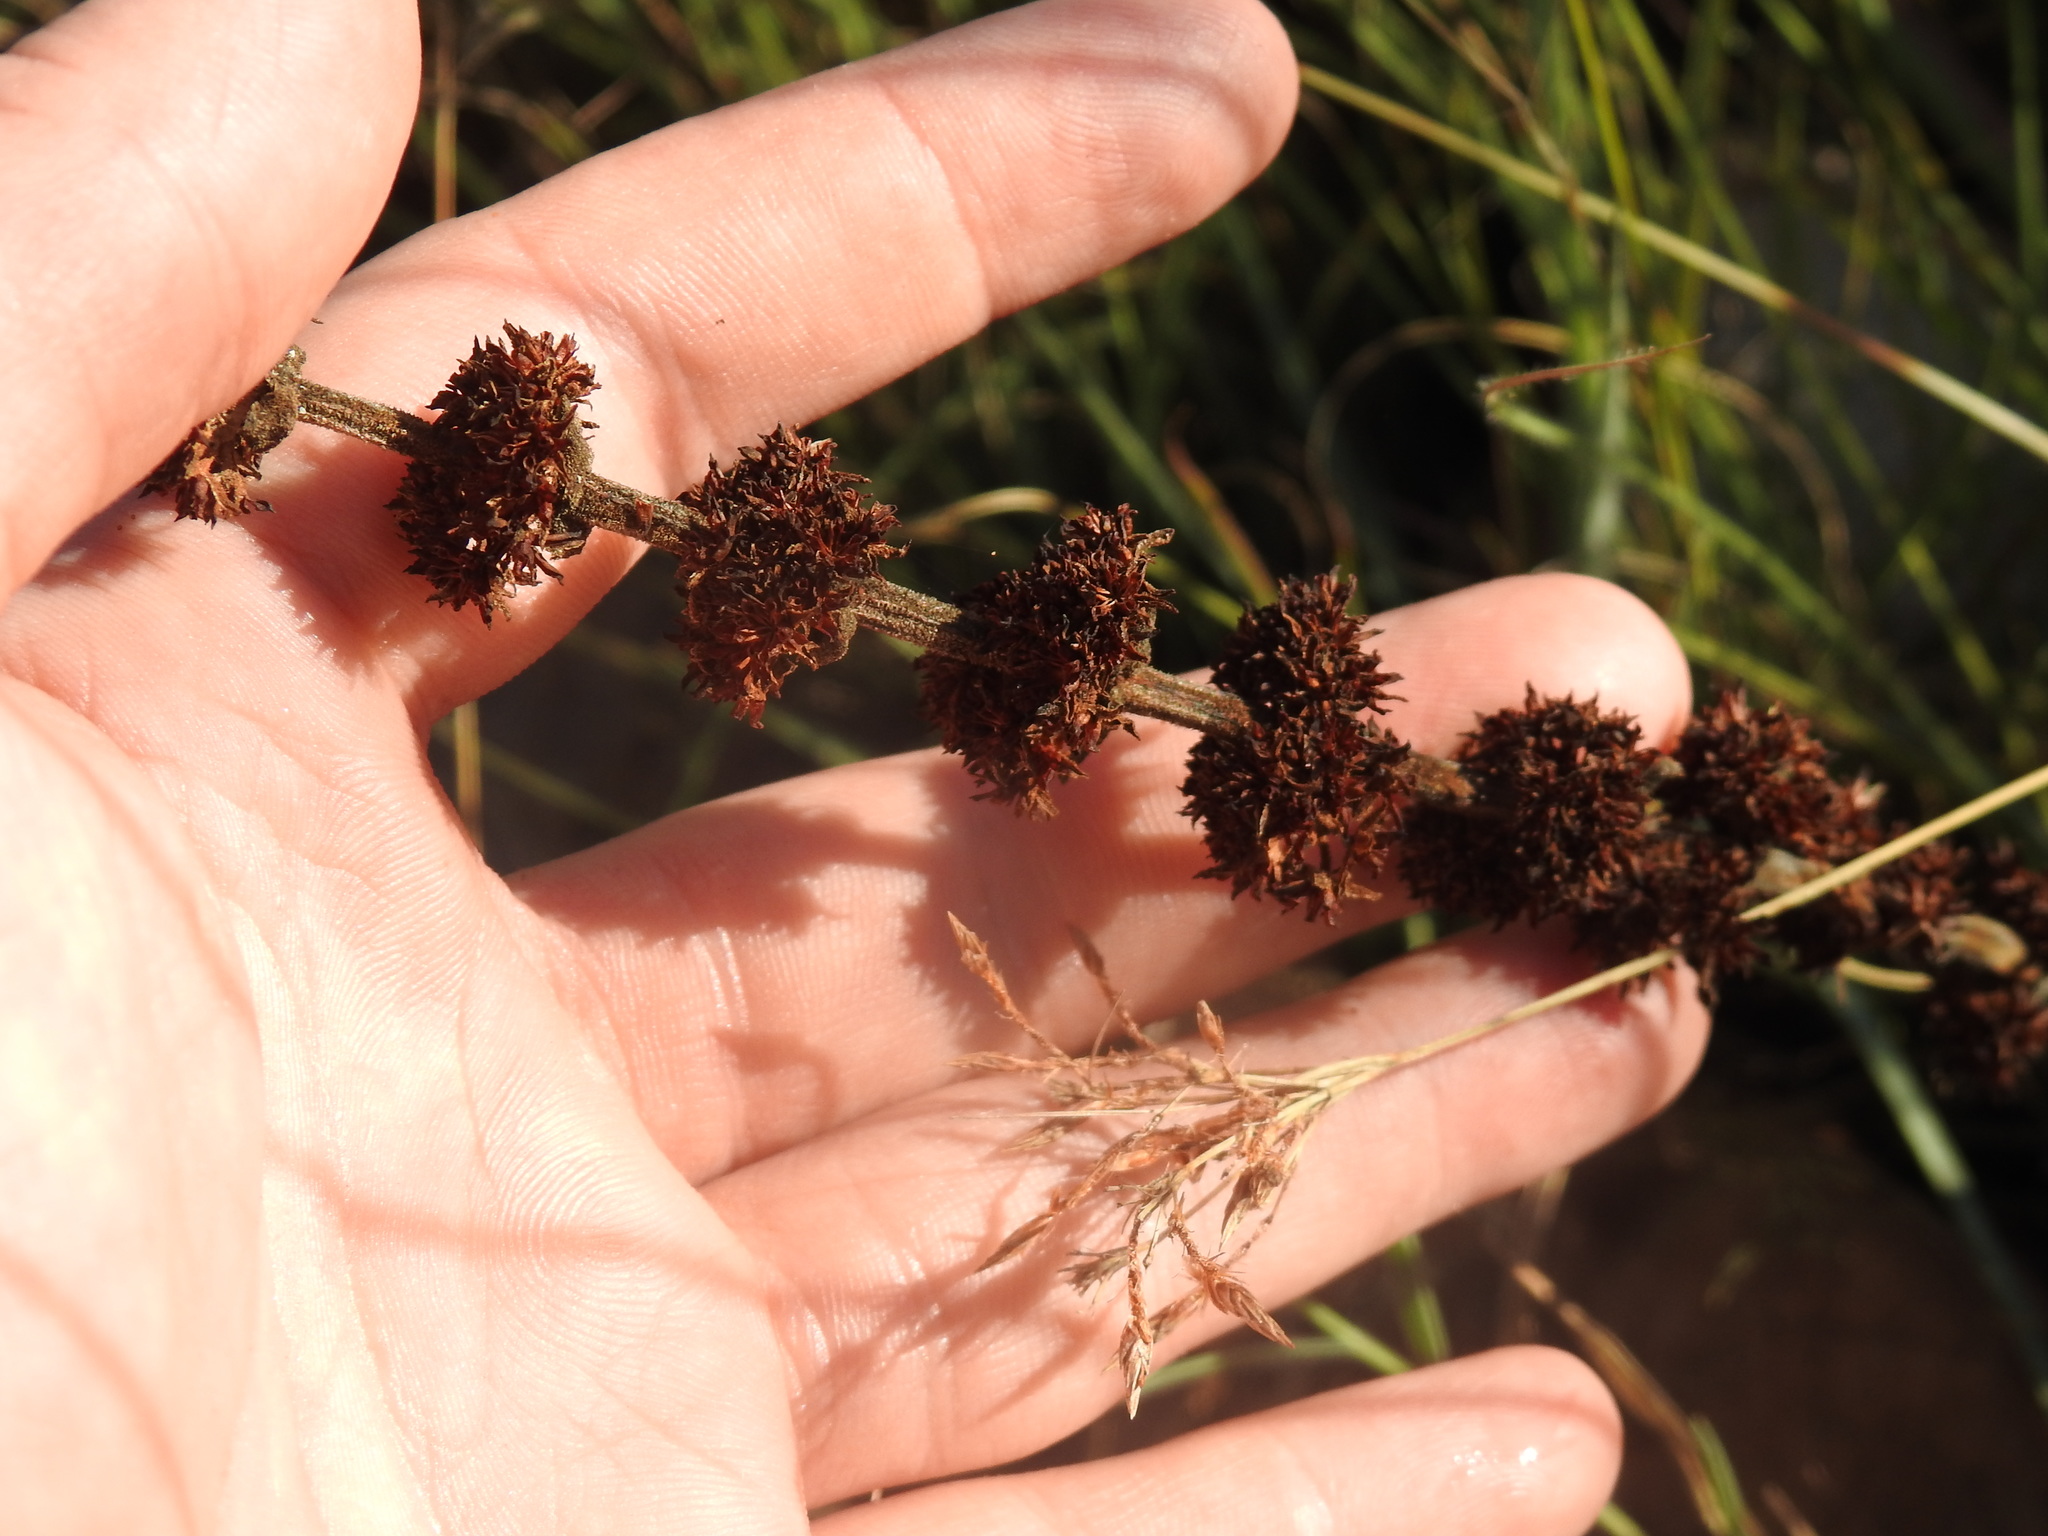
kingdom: Plantae
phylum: Tracheophyta
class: Magnoliopsida
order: Saxifragales
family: Crassulaceae
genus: Crassula
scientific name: Crassula nodulosa
